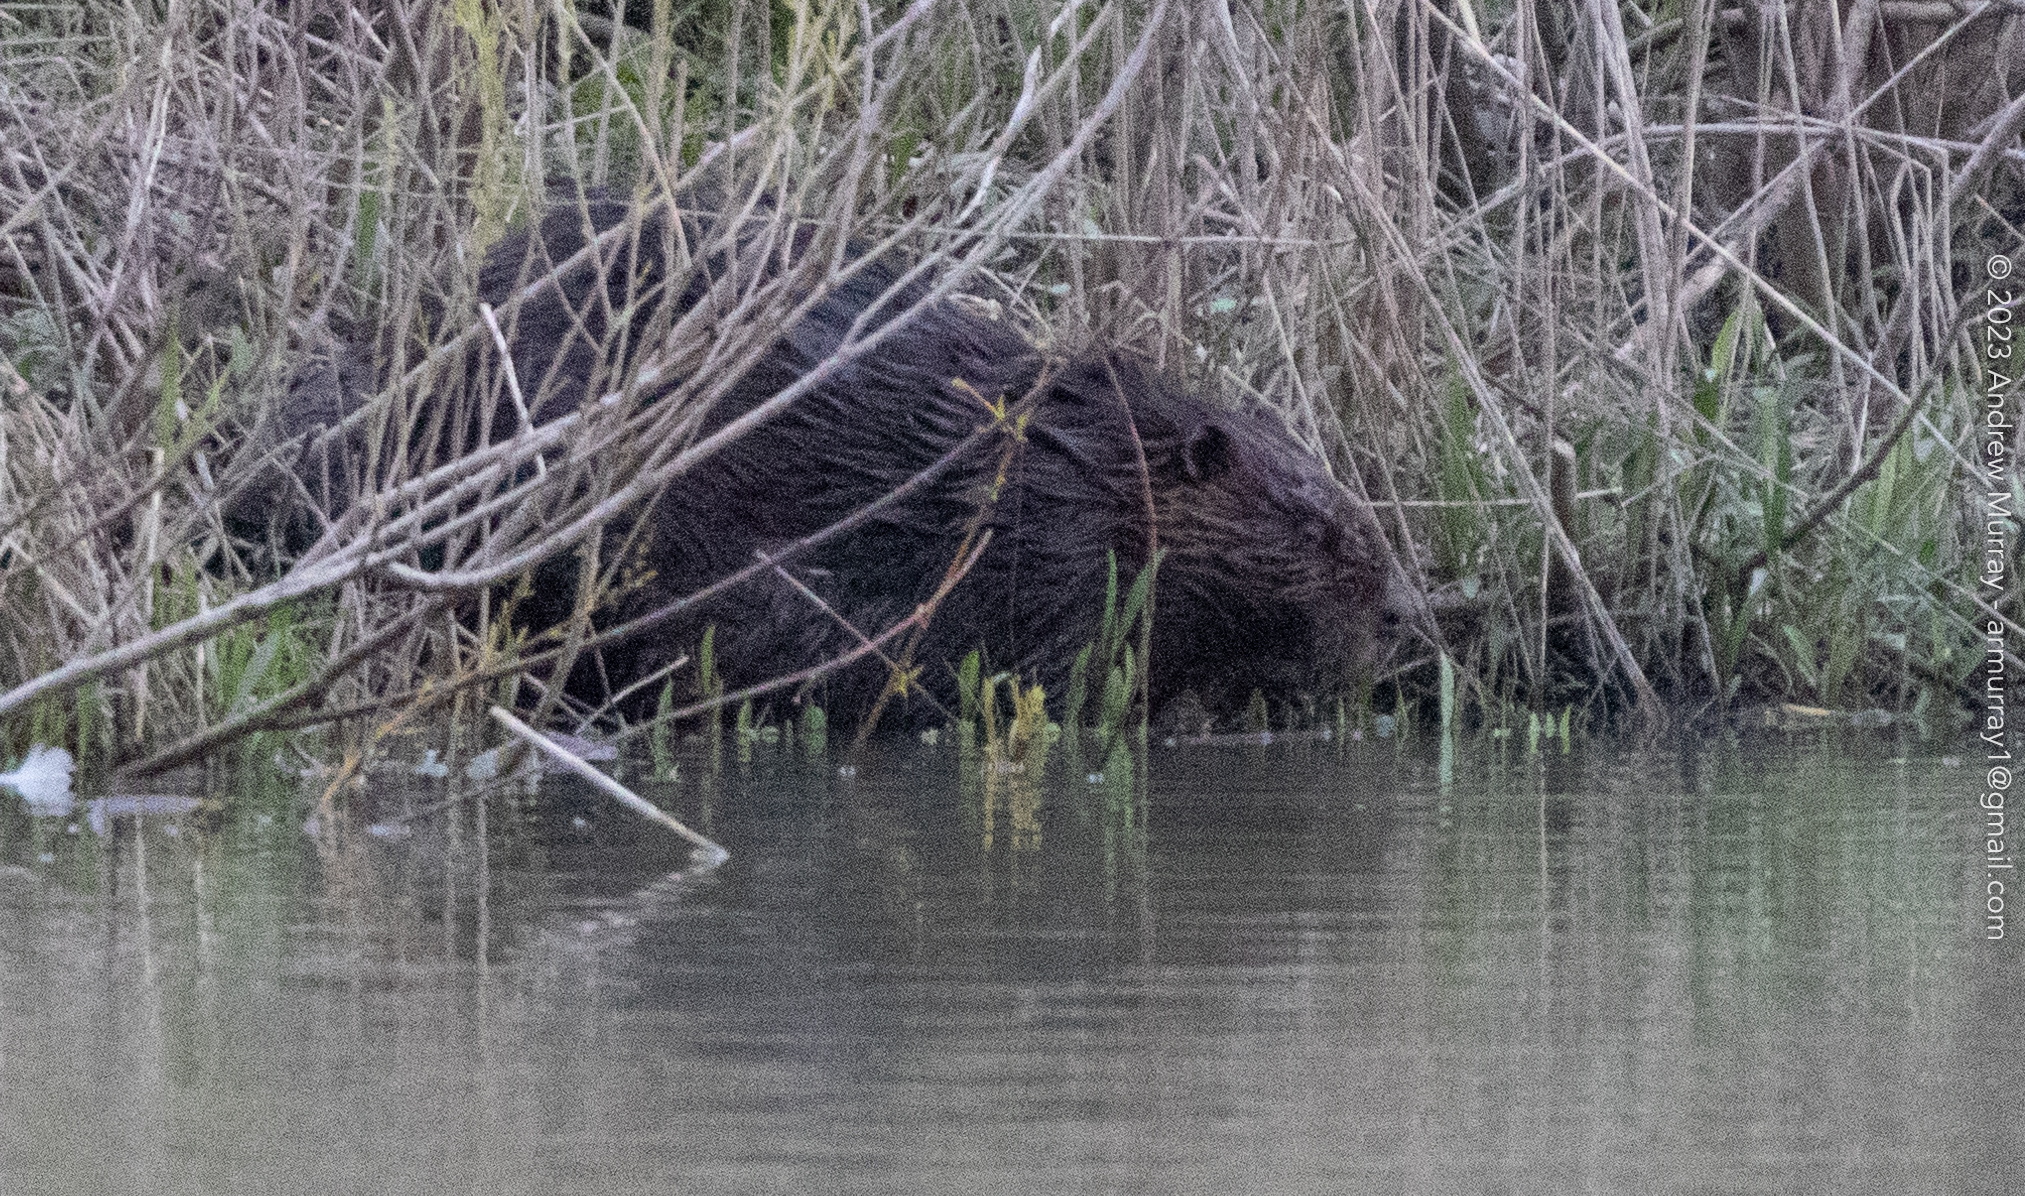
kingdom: Animalia
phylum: Chordata
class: Mammalia
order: Rodentia
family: Castoridae
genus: Castor
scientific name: Castor canadensis
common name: American beaver
